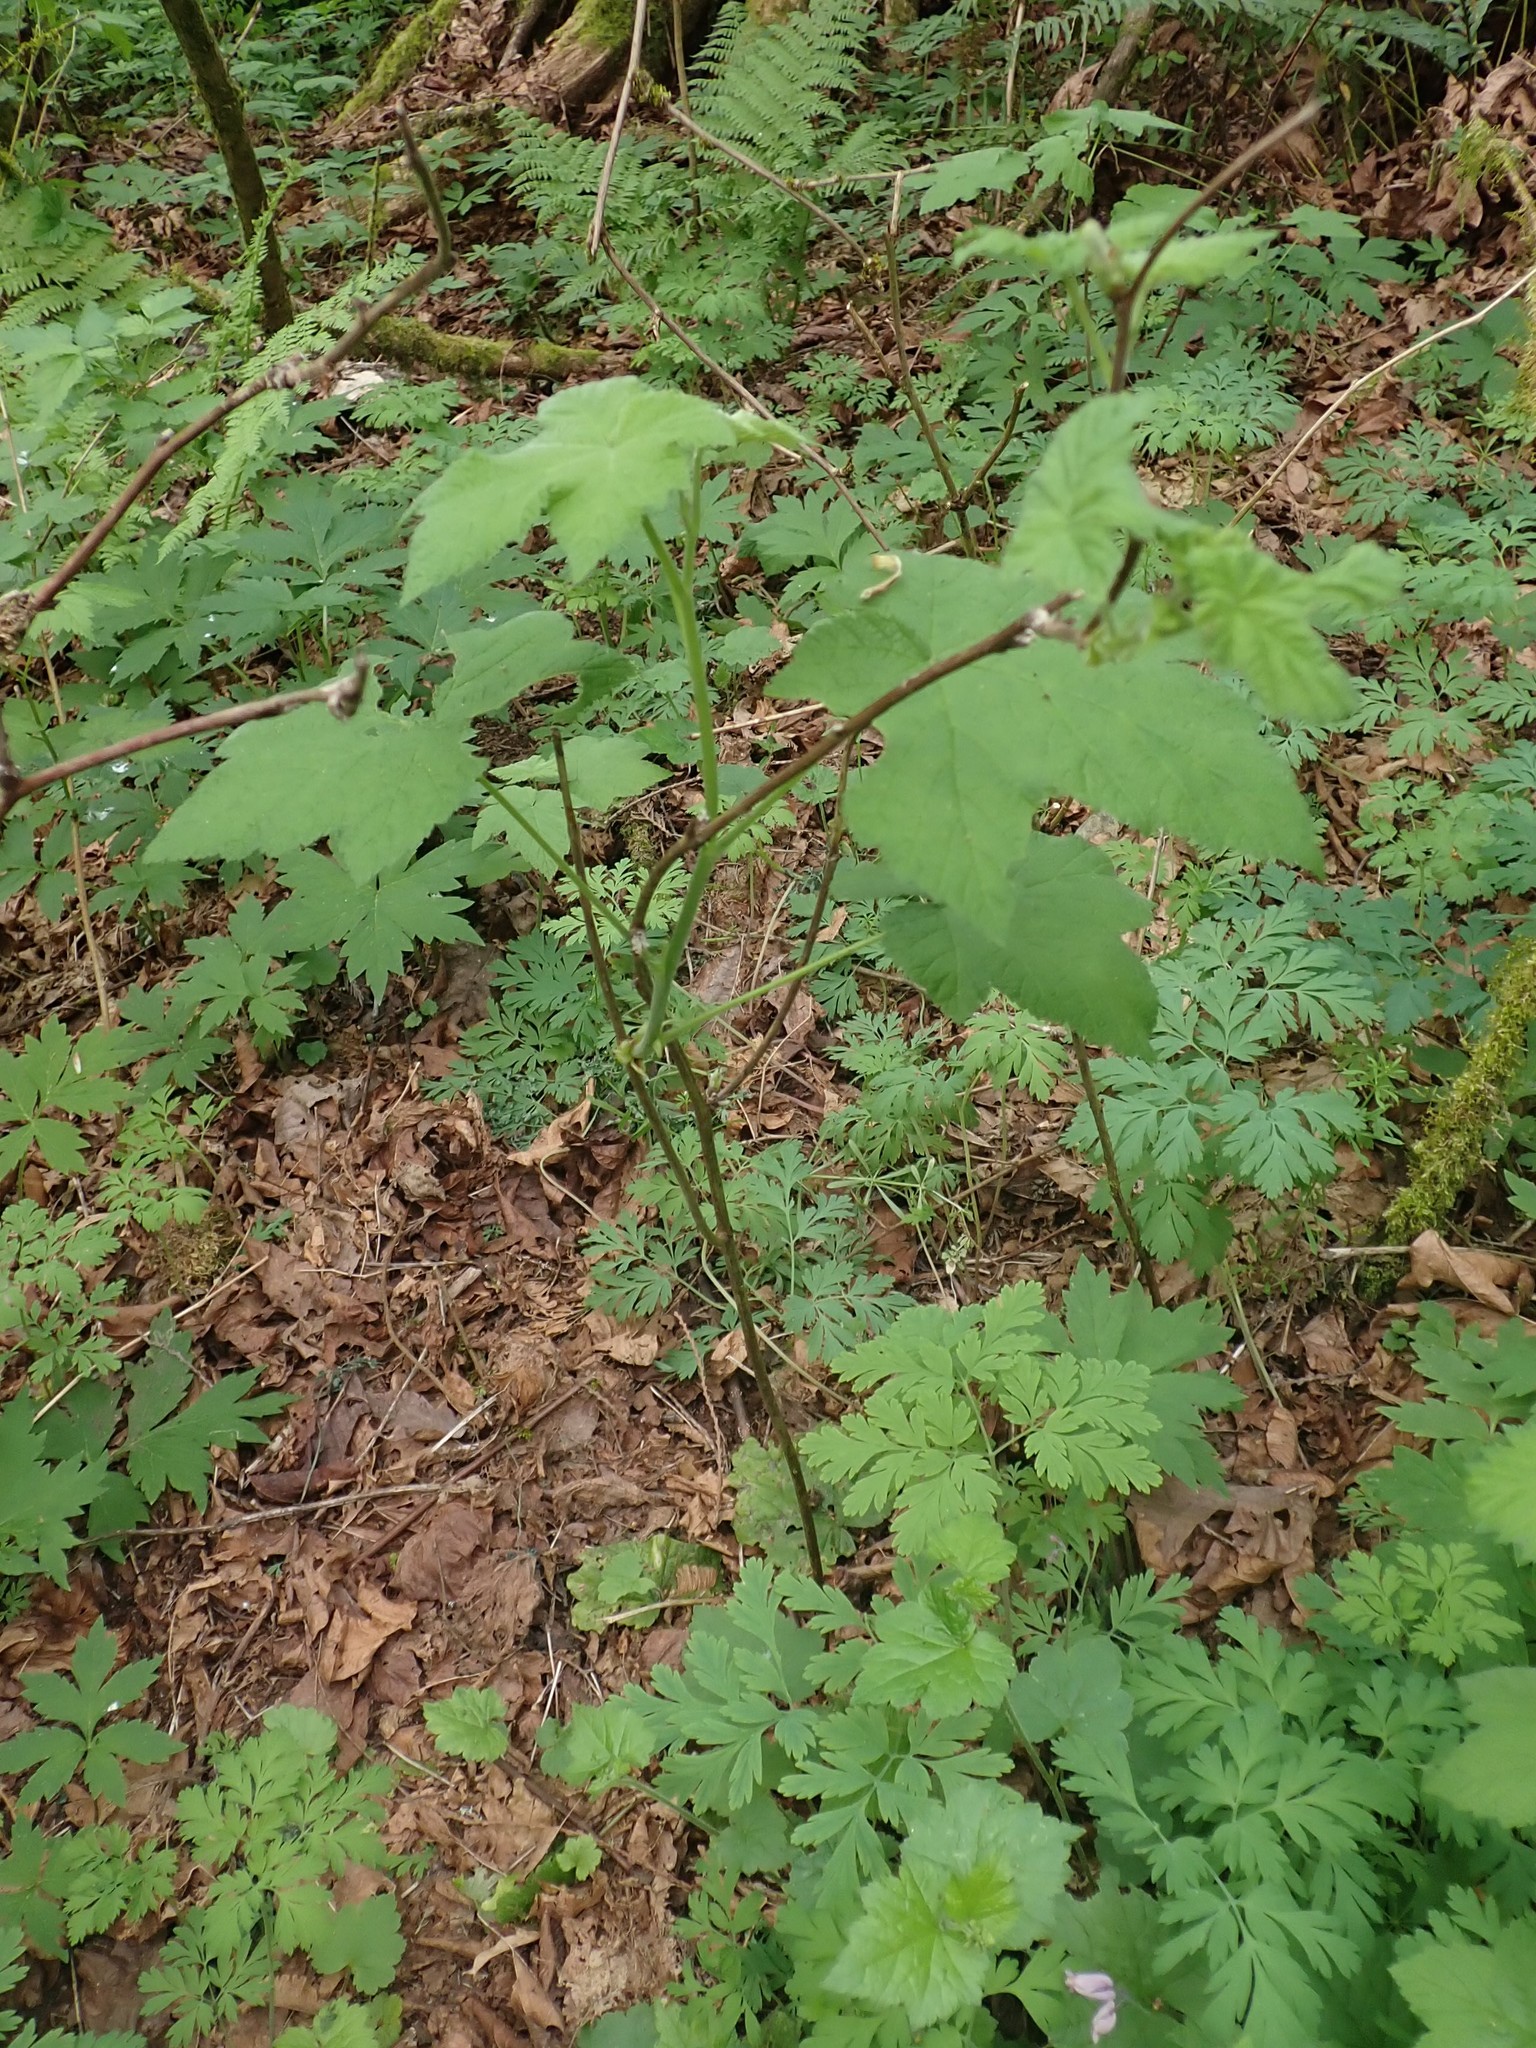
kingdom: Plantae
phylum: Tracheophyta
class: Magnoliopsida
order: Rosales
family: Rosaceae
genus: Rubus
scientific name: Rubus parviflorus
